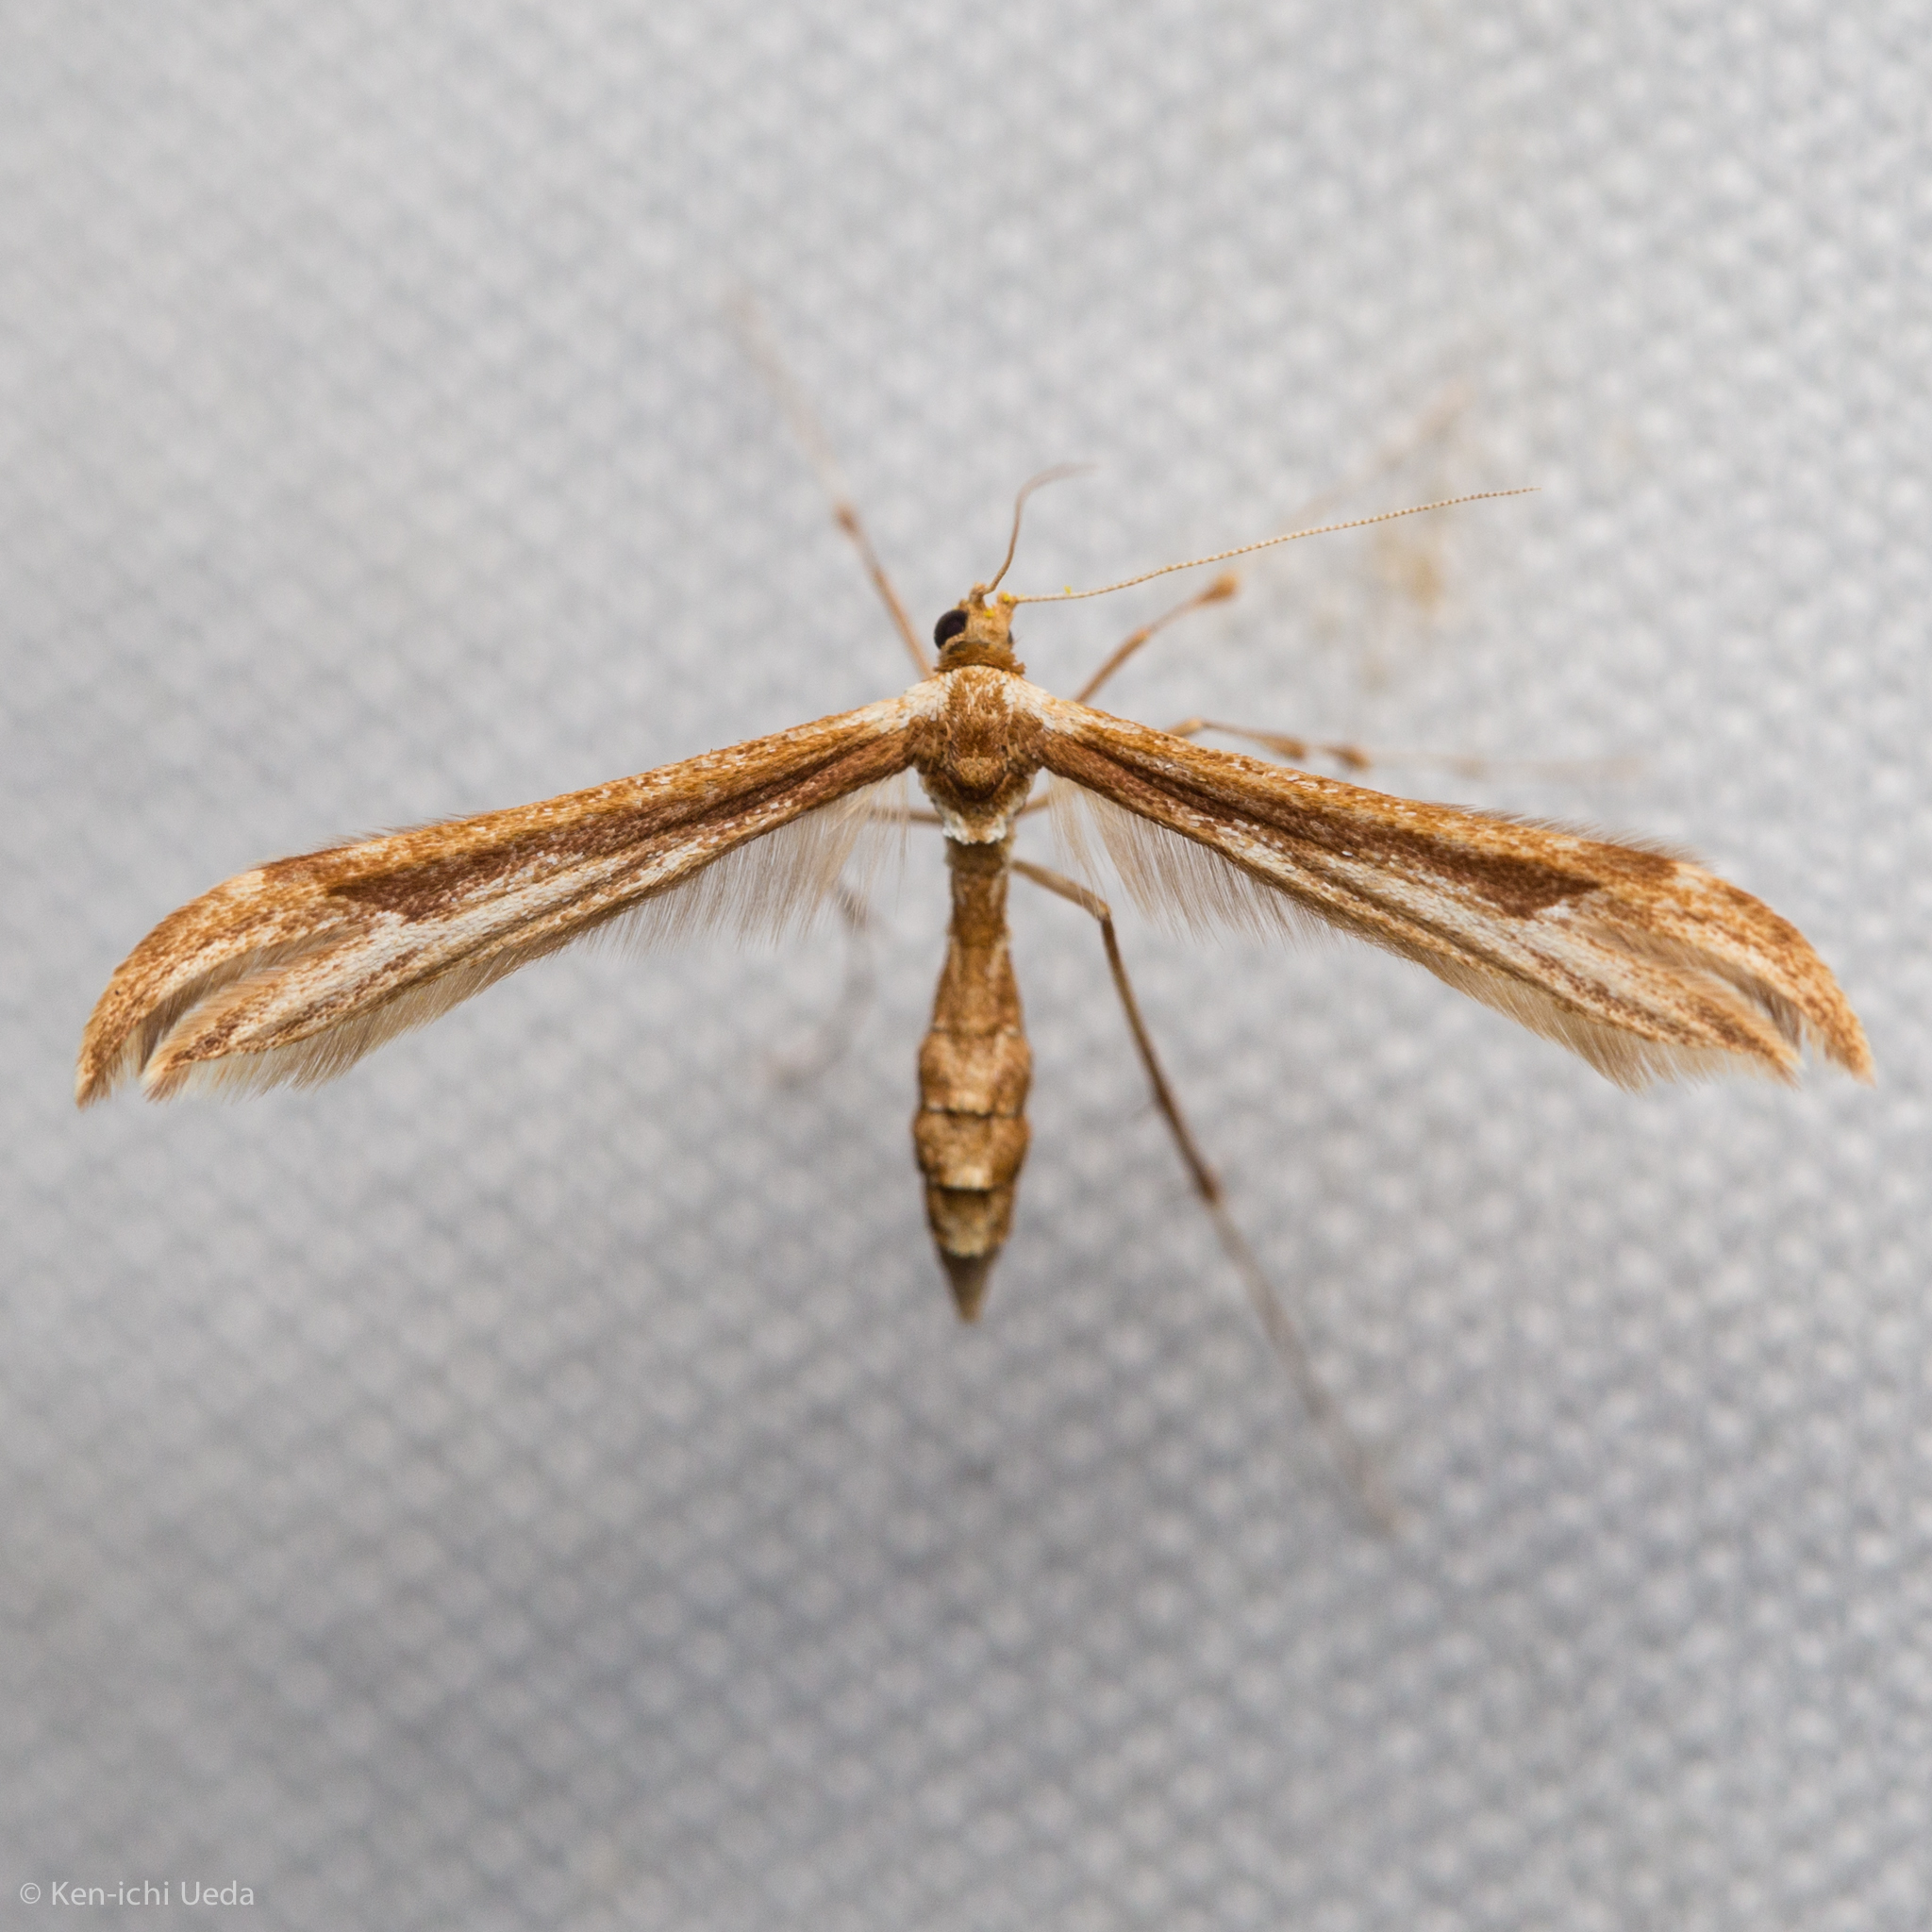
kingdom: Animalia
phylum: Arthropoda
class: Insecta
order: Lepidoptera
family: Pterophoridae
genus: Hellinsia
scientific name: Hellinsia fieldi
